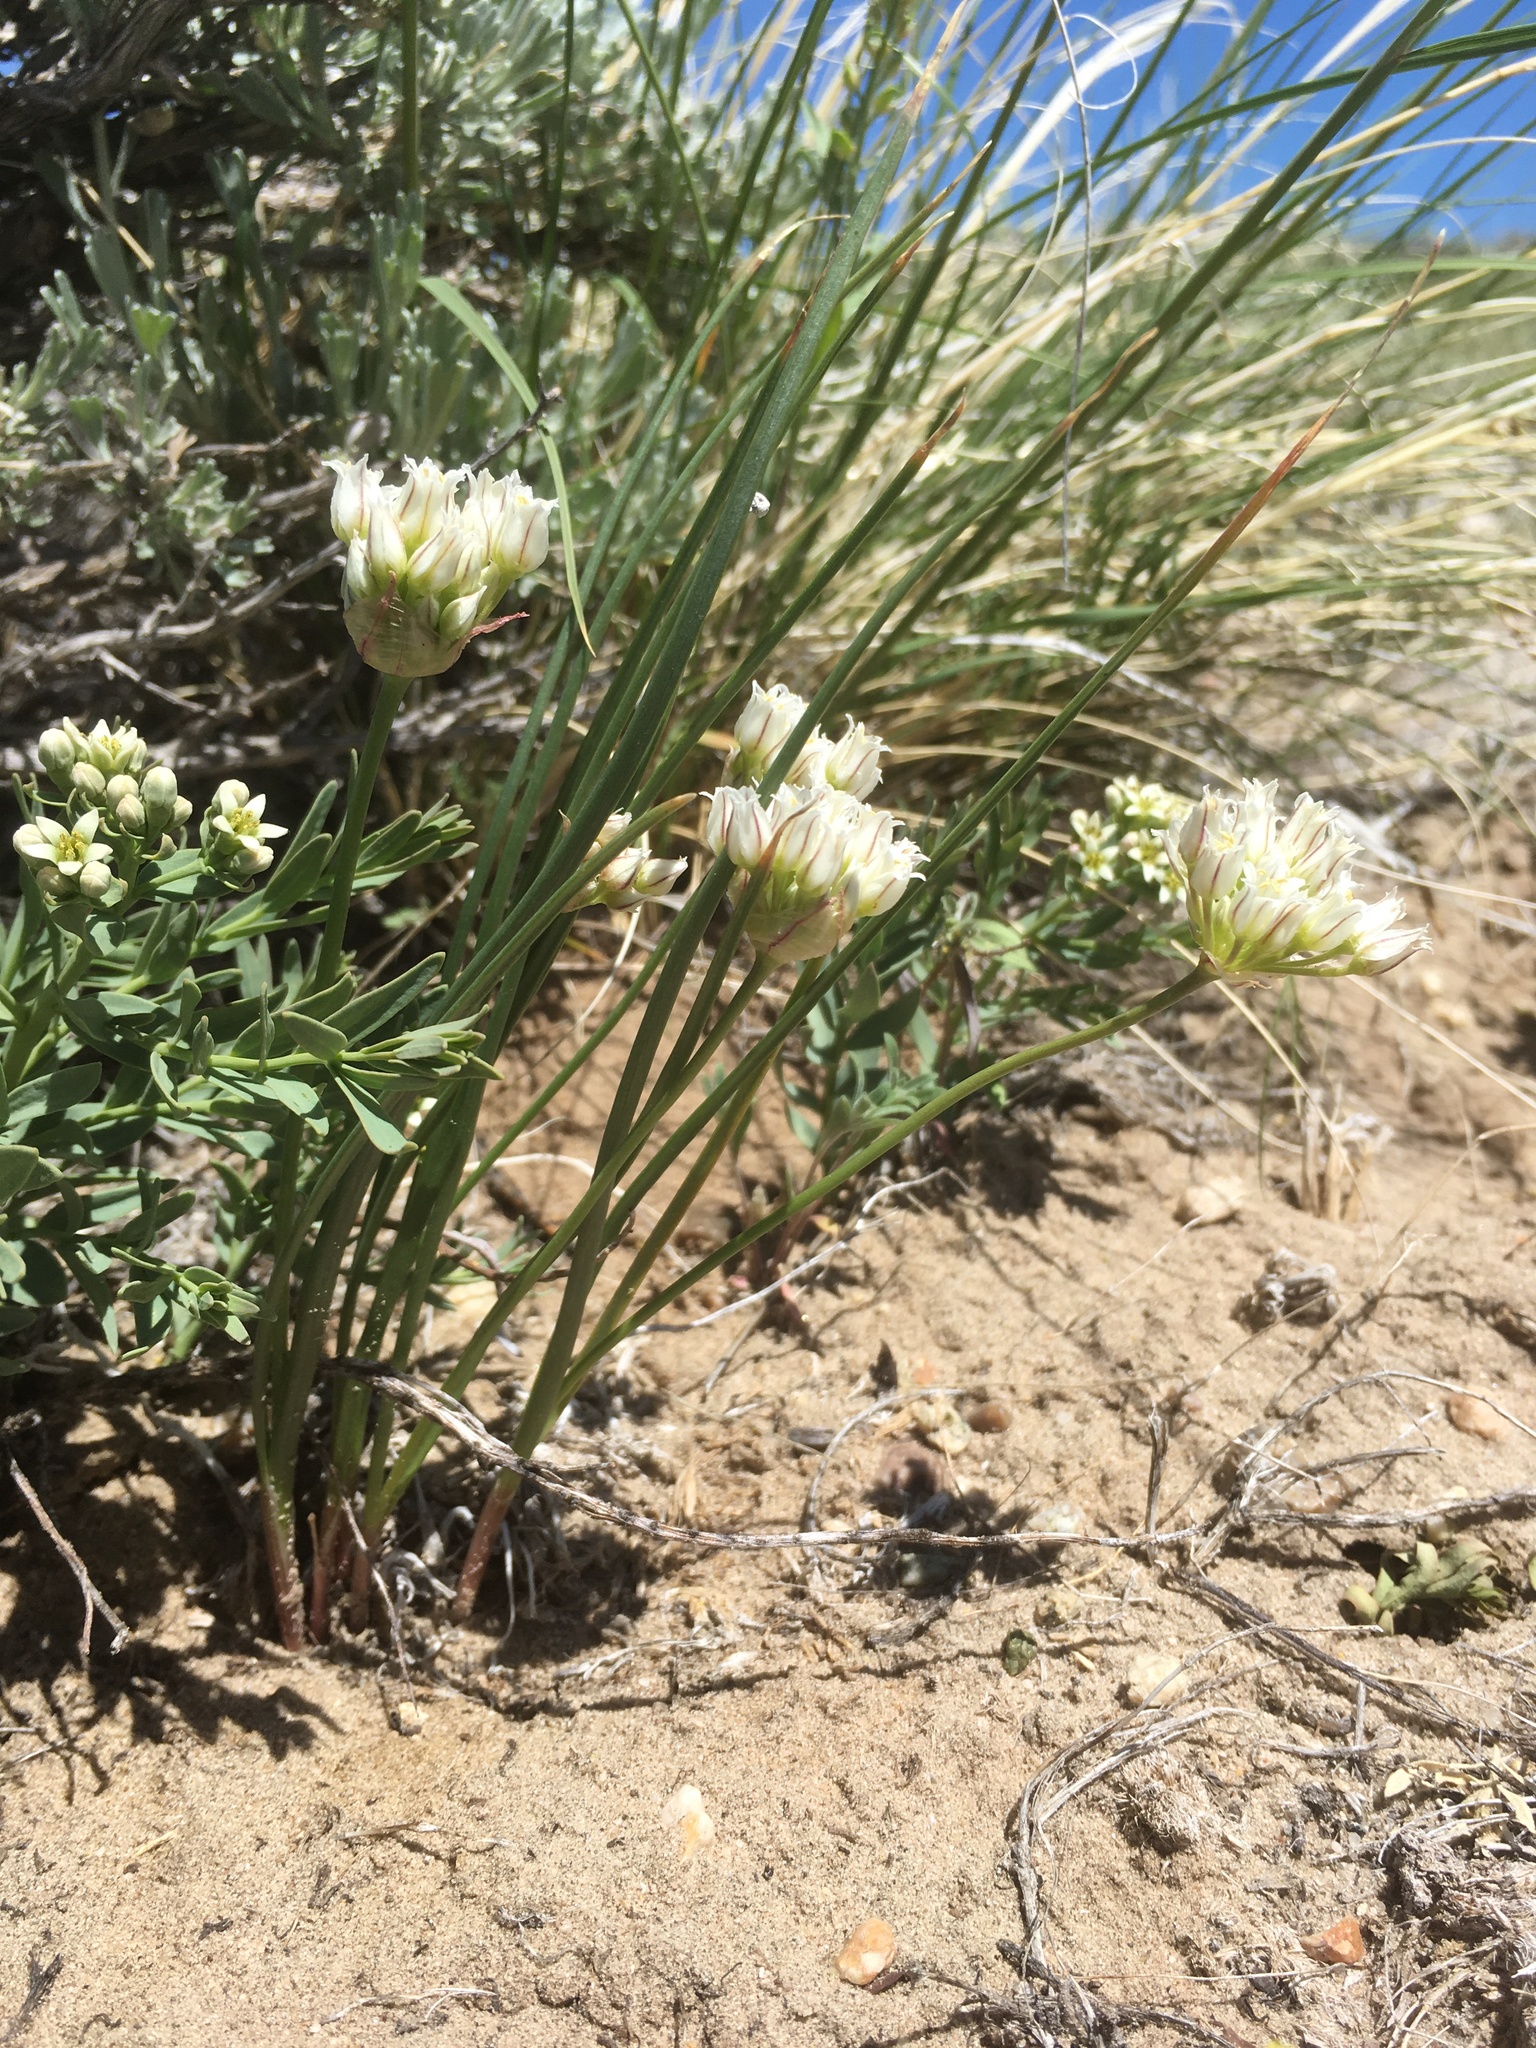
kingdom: Plantae
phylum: Tracheophyta
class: Liliopsida
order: Asparagales
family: Amaryllidaceae
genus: Allium
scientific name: Allium textile
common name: Prairie onion
